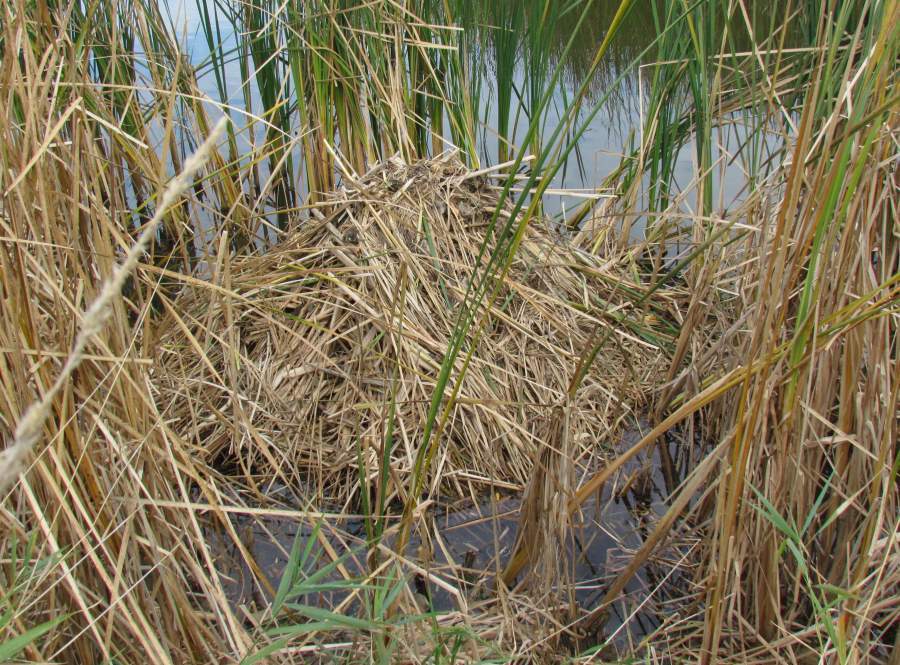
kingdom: Animalia
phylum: Chordata
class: Mammalia
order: Rodentia
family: Cricetidae
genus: Ondatra
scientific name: Ondatra zibethicus
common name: Muskrat
